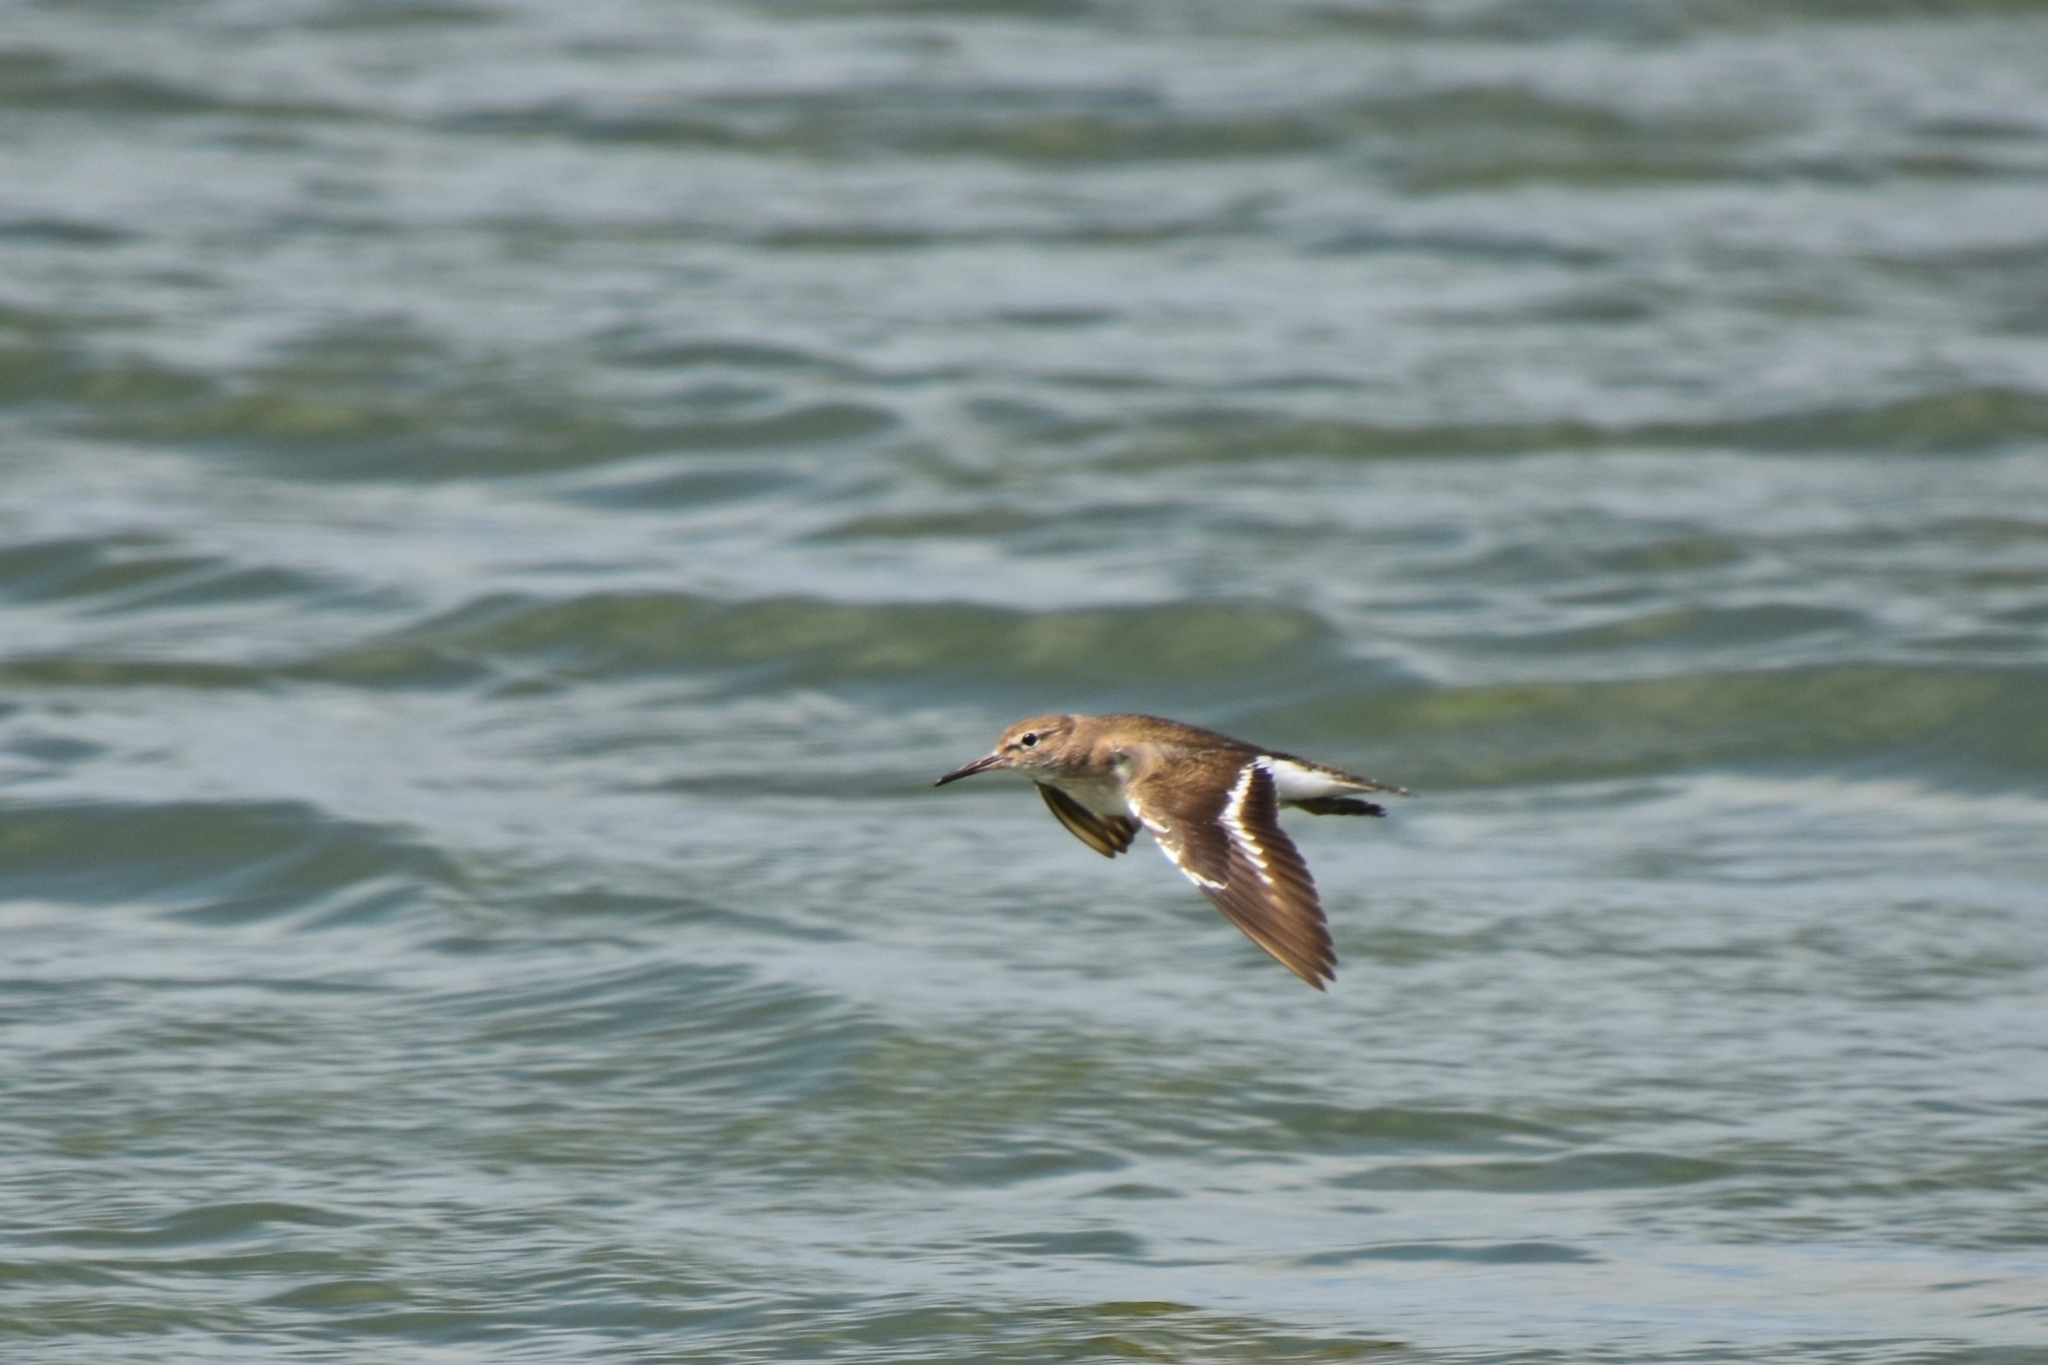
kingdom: Animalia
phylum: Chordata
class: Aves
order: Charadriiformes
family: Scolopacidae
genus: Actitis
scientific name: Actitis hypoleucos
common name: Common sandpiper
